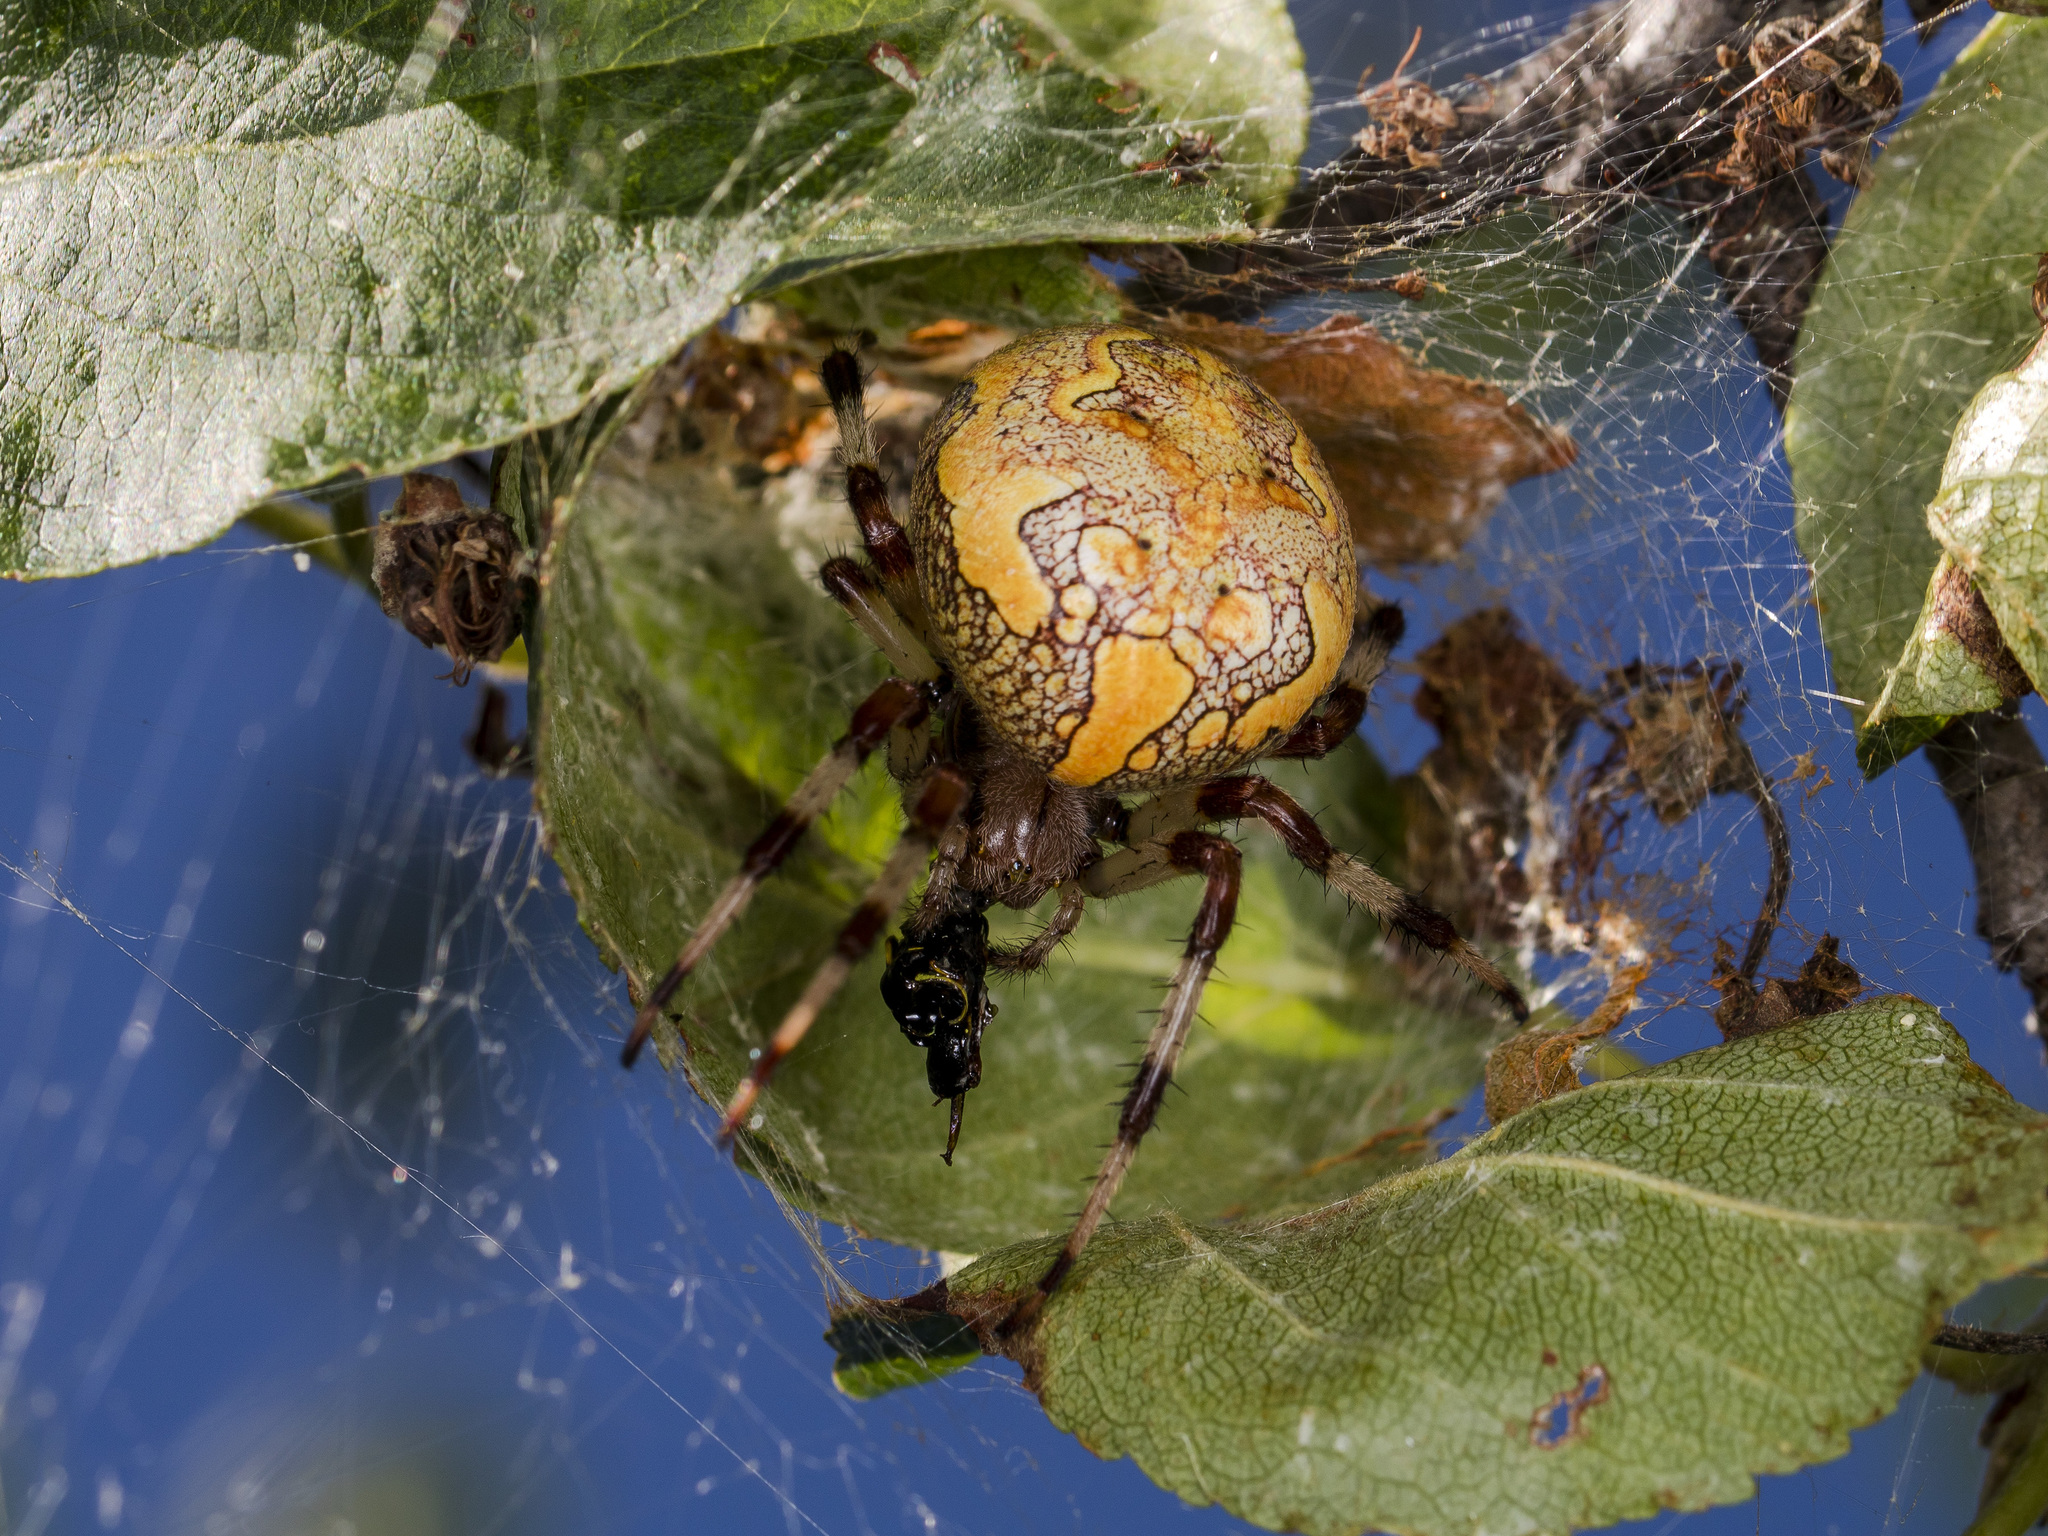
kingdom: Animalia
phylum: Arthropoda
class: Arachnida
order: Araneae
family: Araneidae
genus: Araneus
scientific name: Araneus marmoreus
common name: Marbled orbweaver
